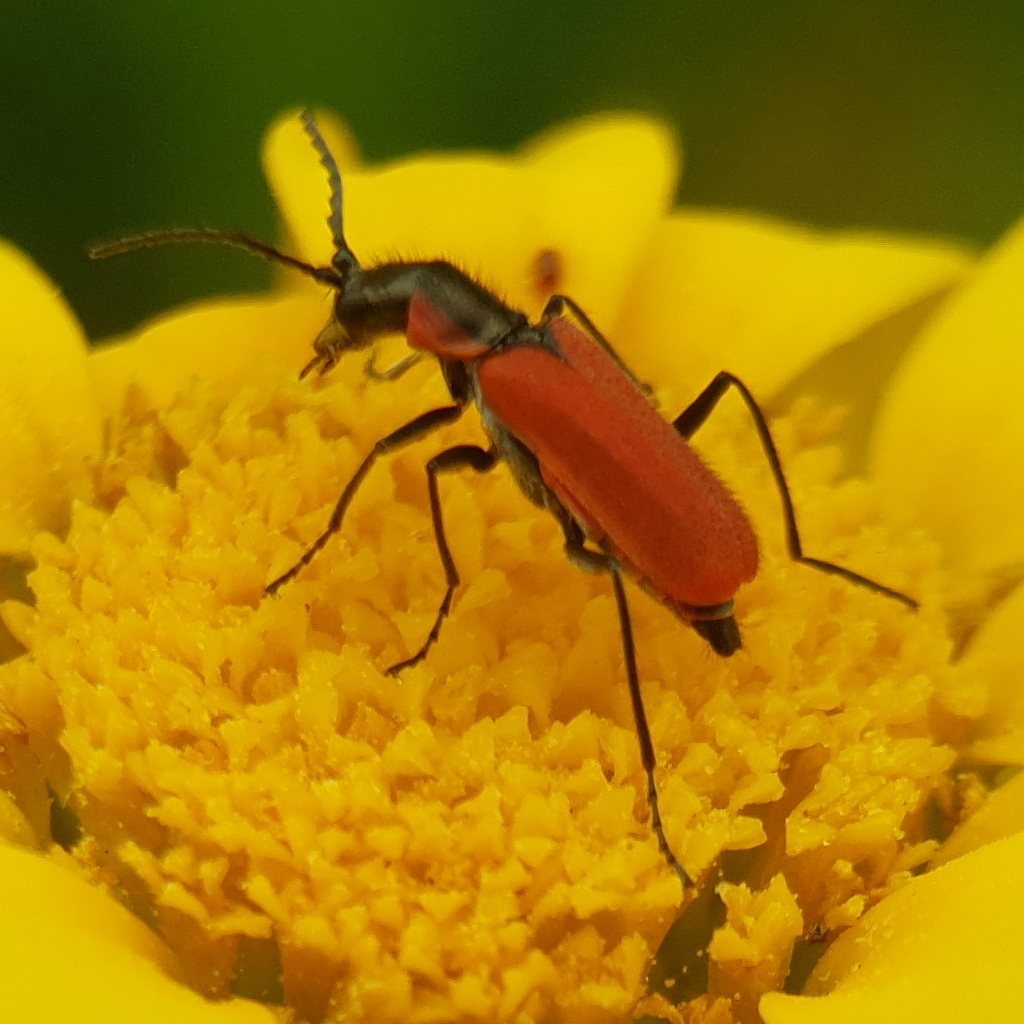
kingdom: Animalia
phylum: Arthropoda
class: Insecta
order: Coleoptera
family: Melyridae
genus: Malachius
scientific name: Malachius coccineus
